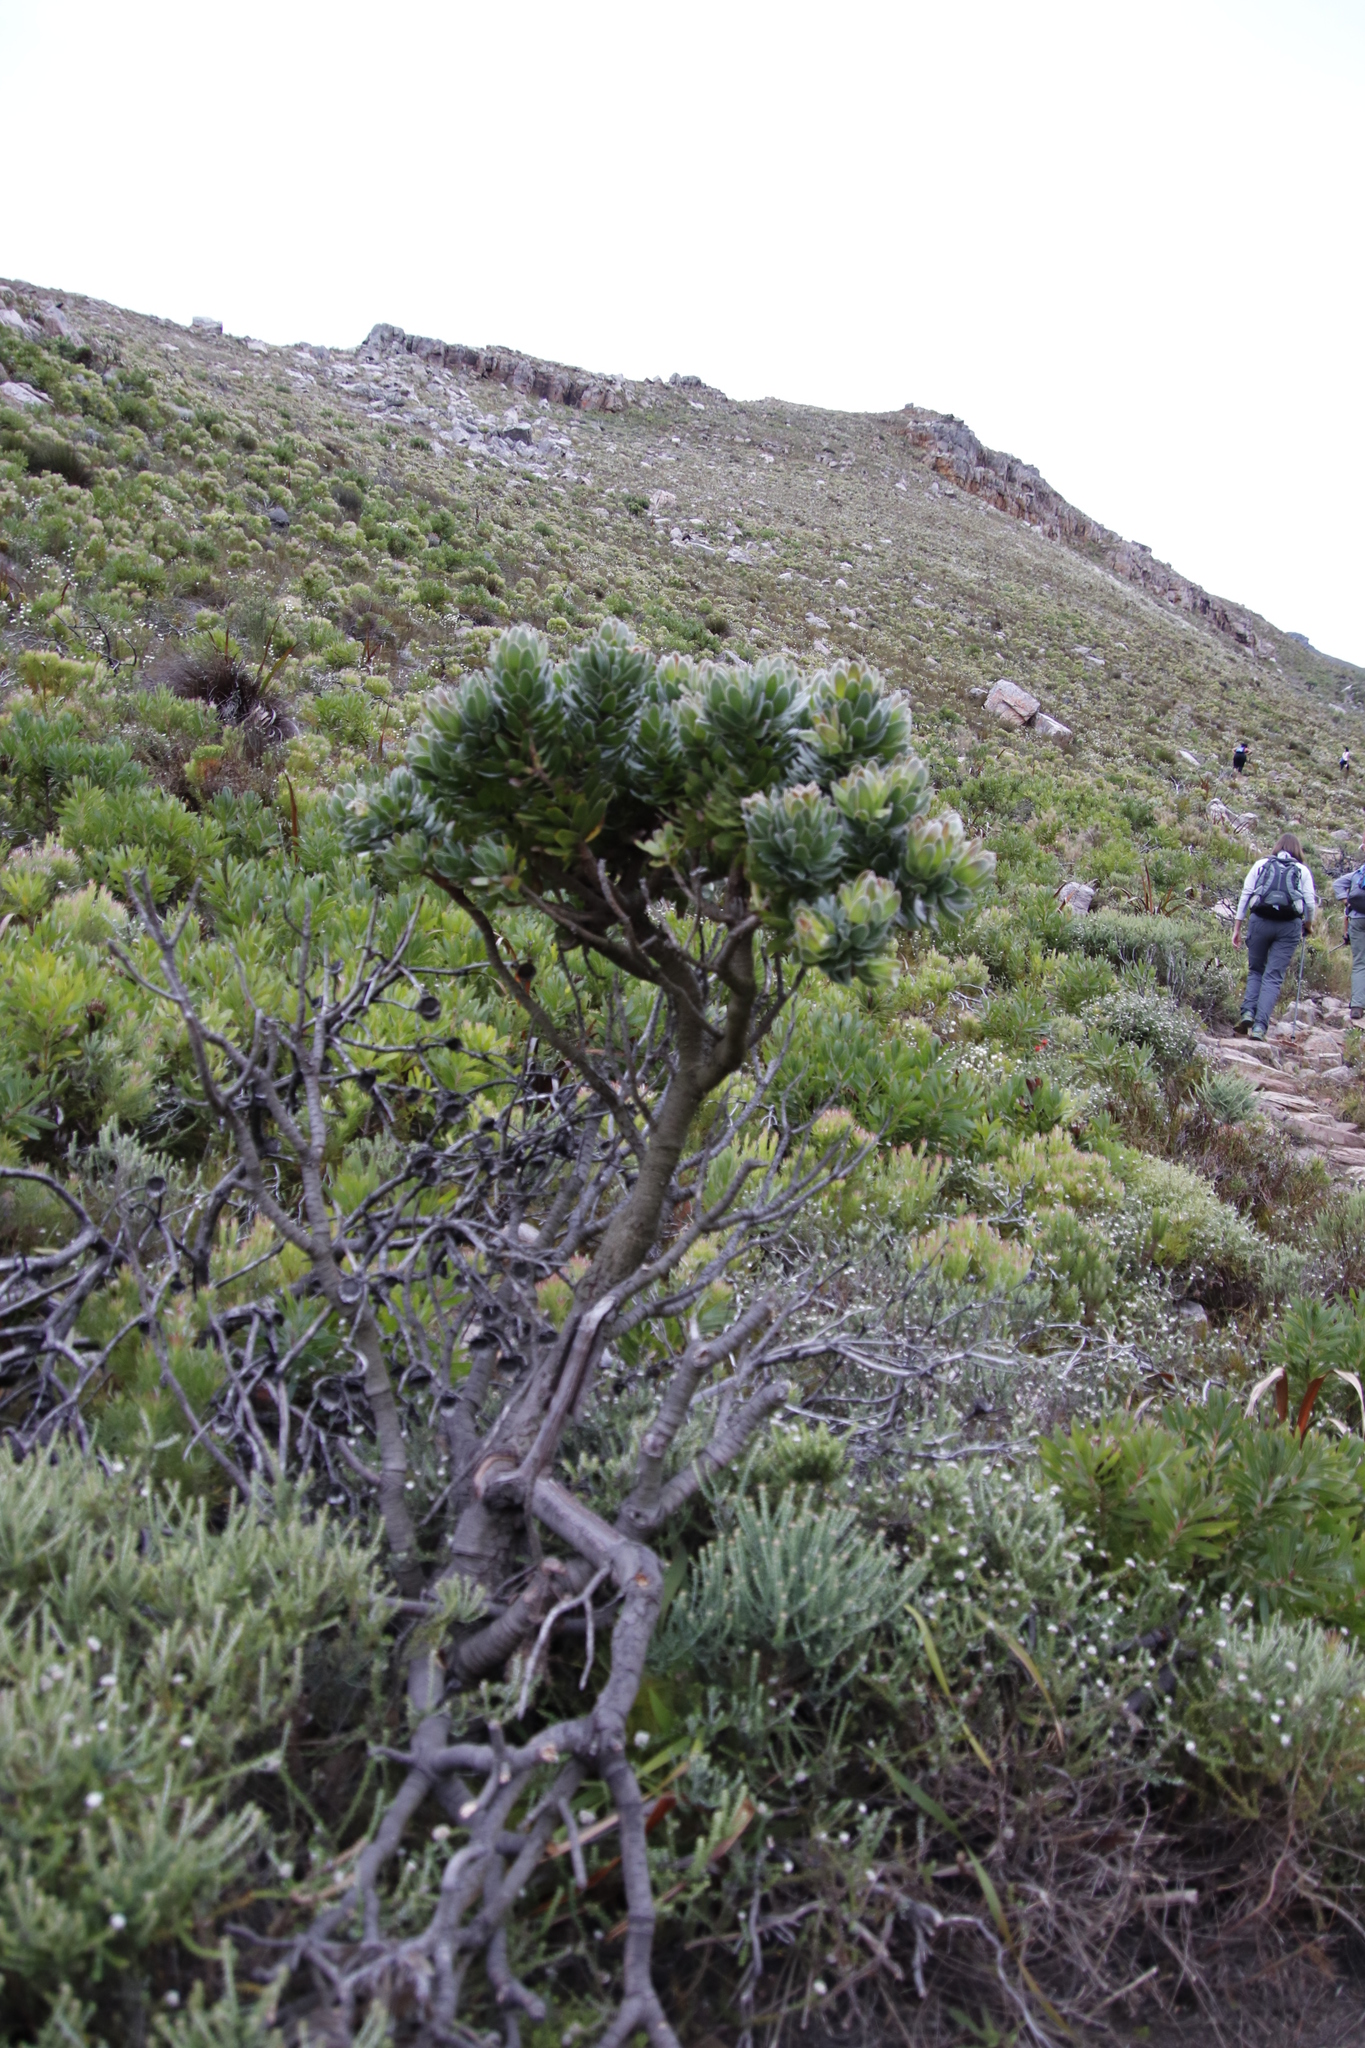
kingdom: Plantae
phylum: Tracheophyta
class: Magnoliopsida
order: Proteales
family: Proteaceae
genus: Mimetes
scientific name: Mimetes fimbriifolius
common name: Fringed bottlebrush
